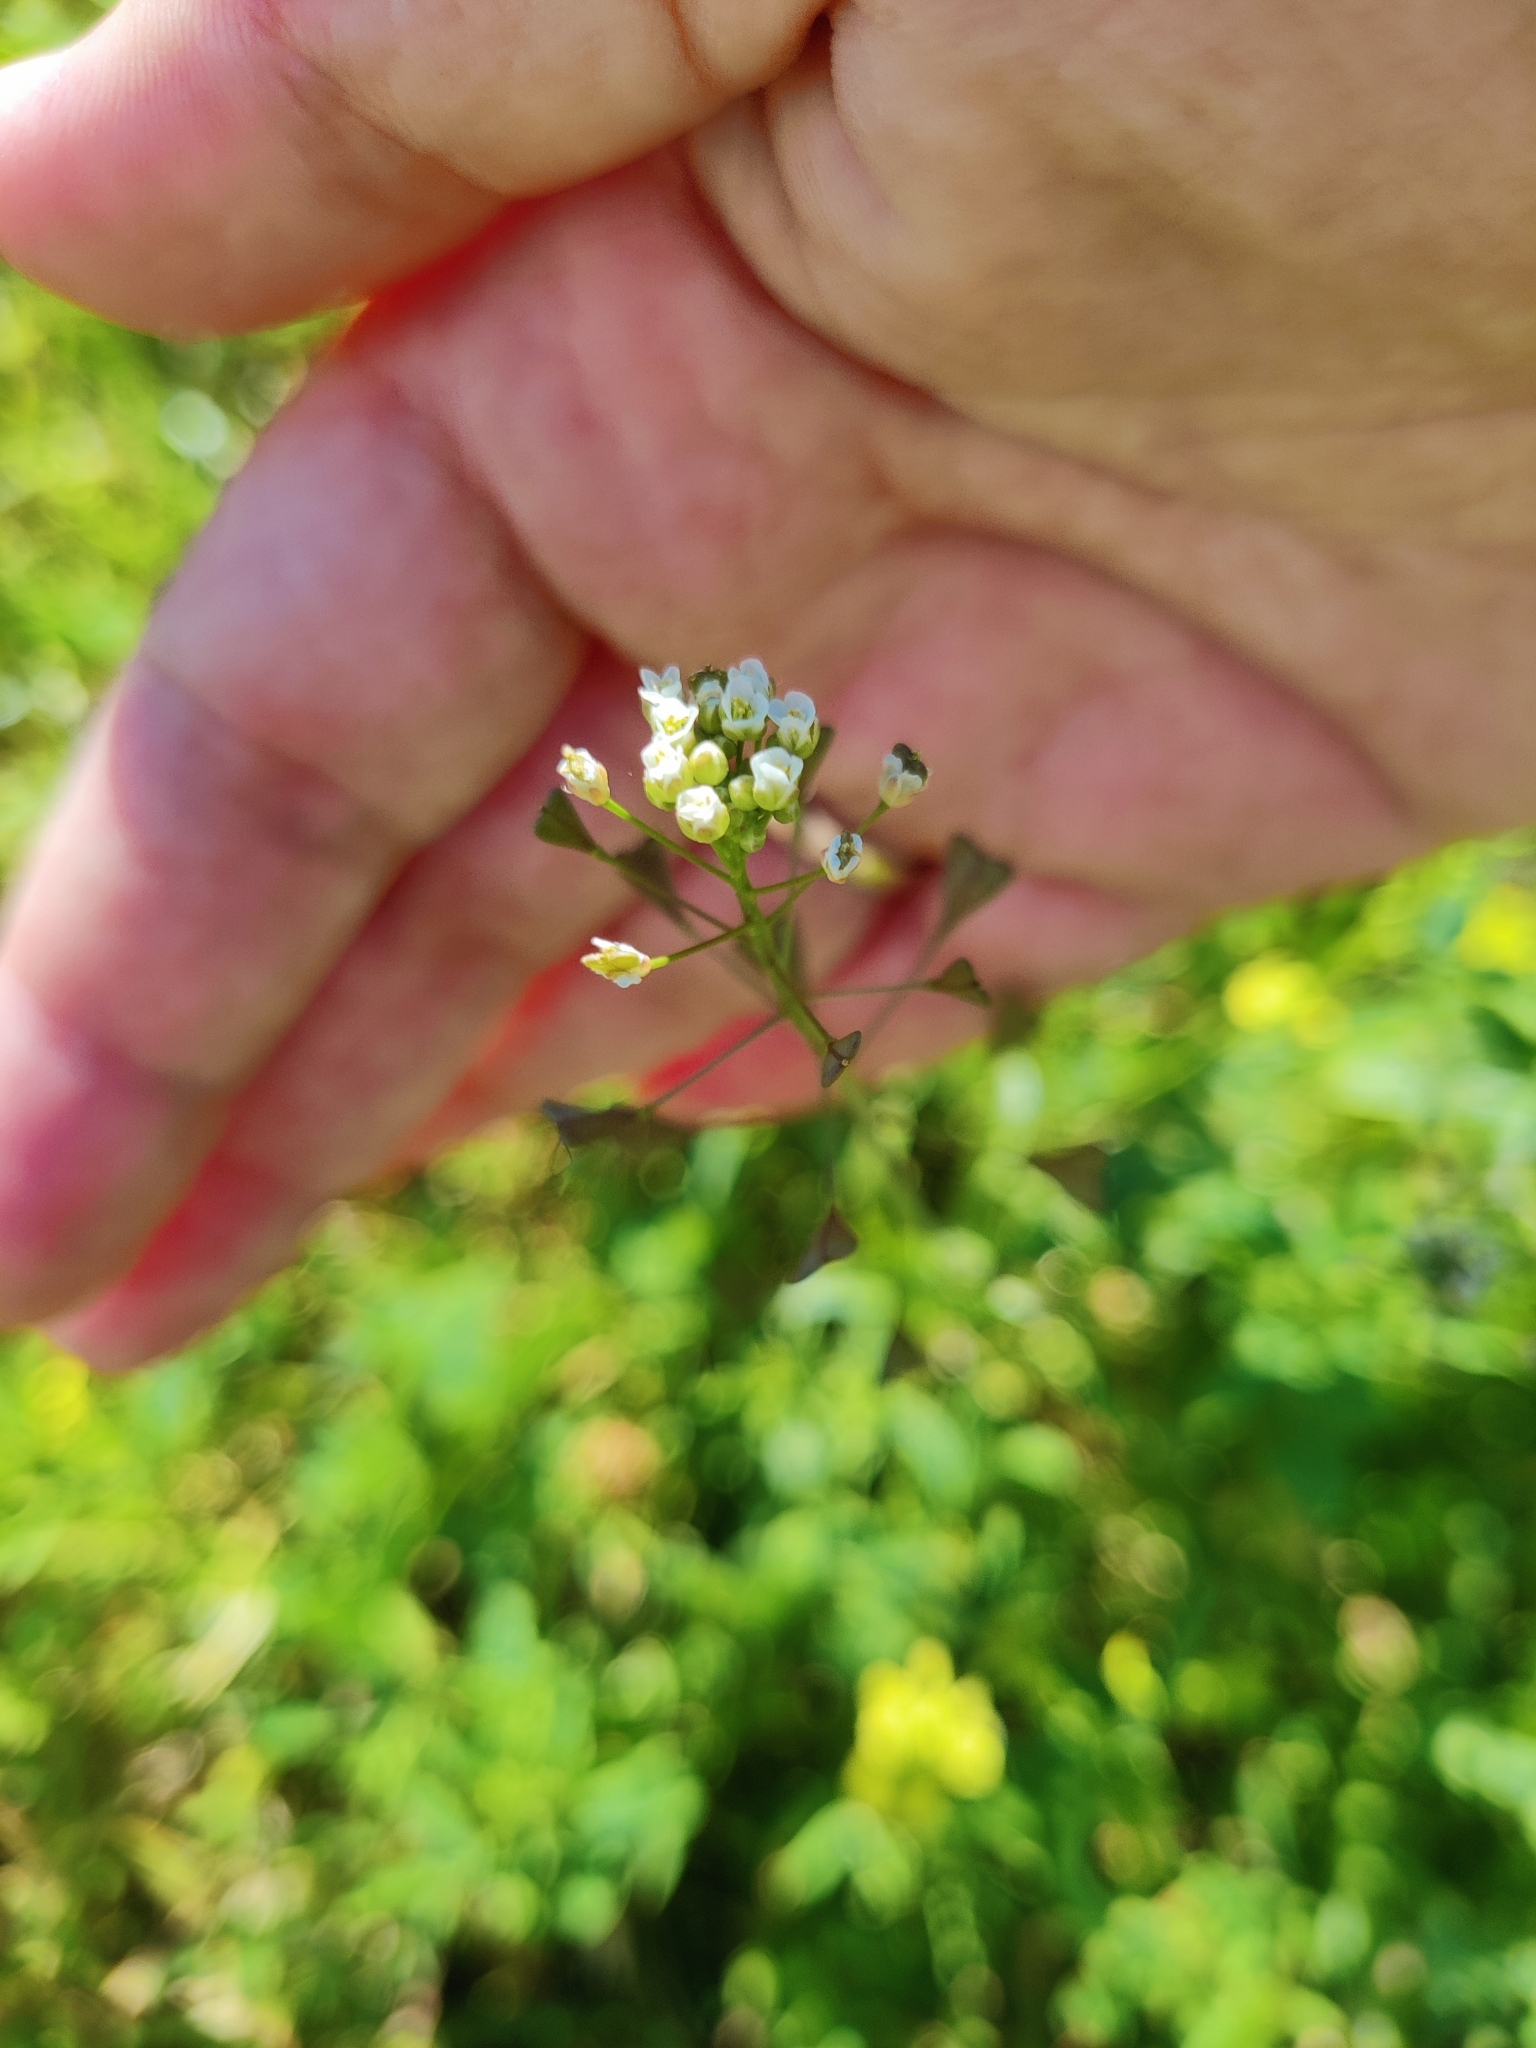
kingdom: Plantae
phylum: Tracheophyta
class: Magnoliopsida
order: Brassicales
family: Brassicaceae
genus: Capsella
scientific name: Capsella bursa-pastoris
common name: Shepherd's purse
